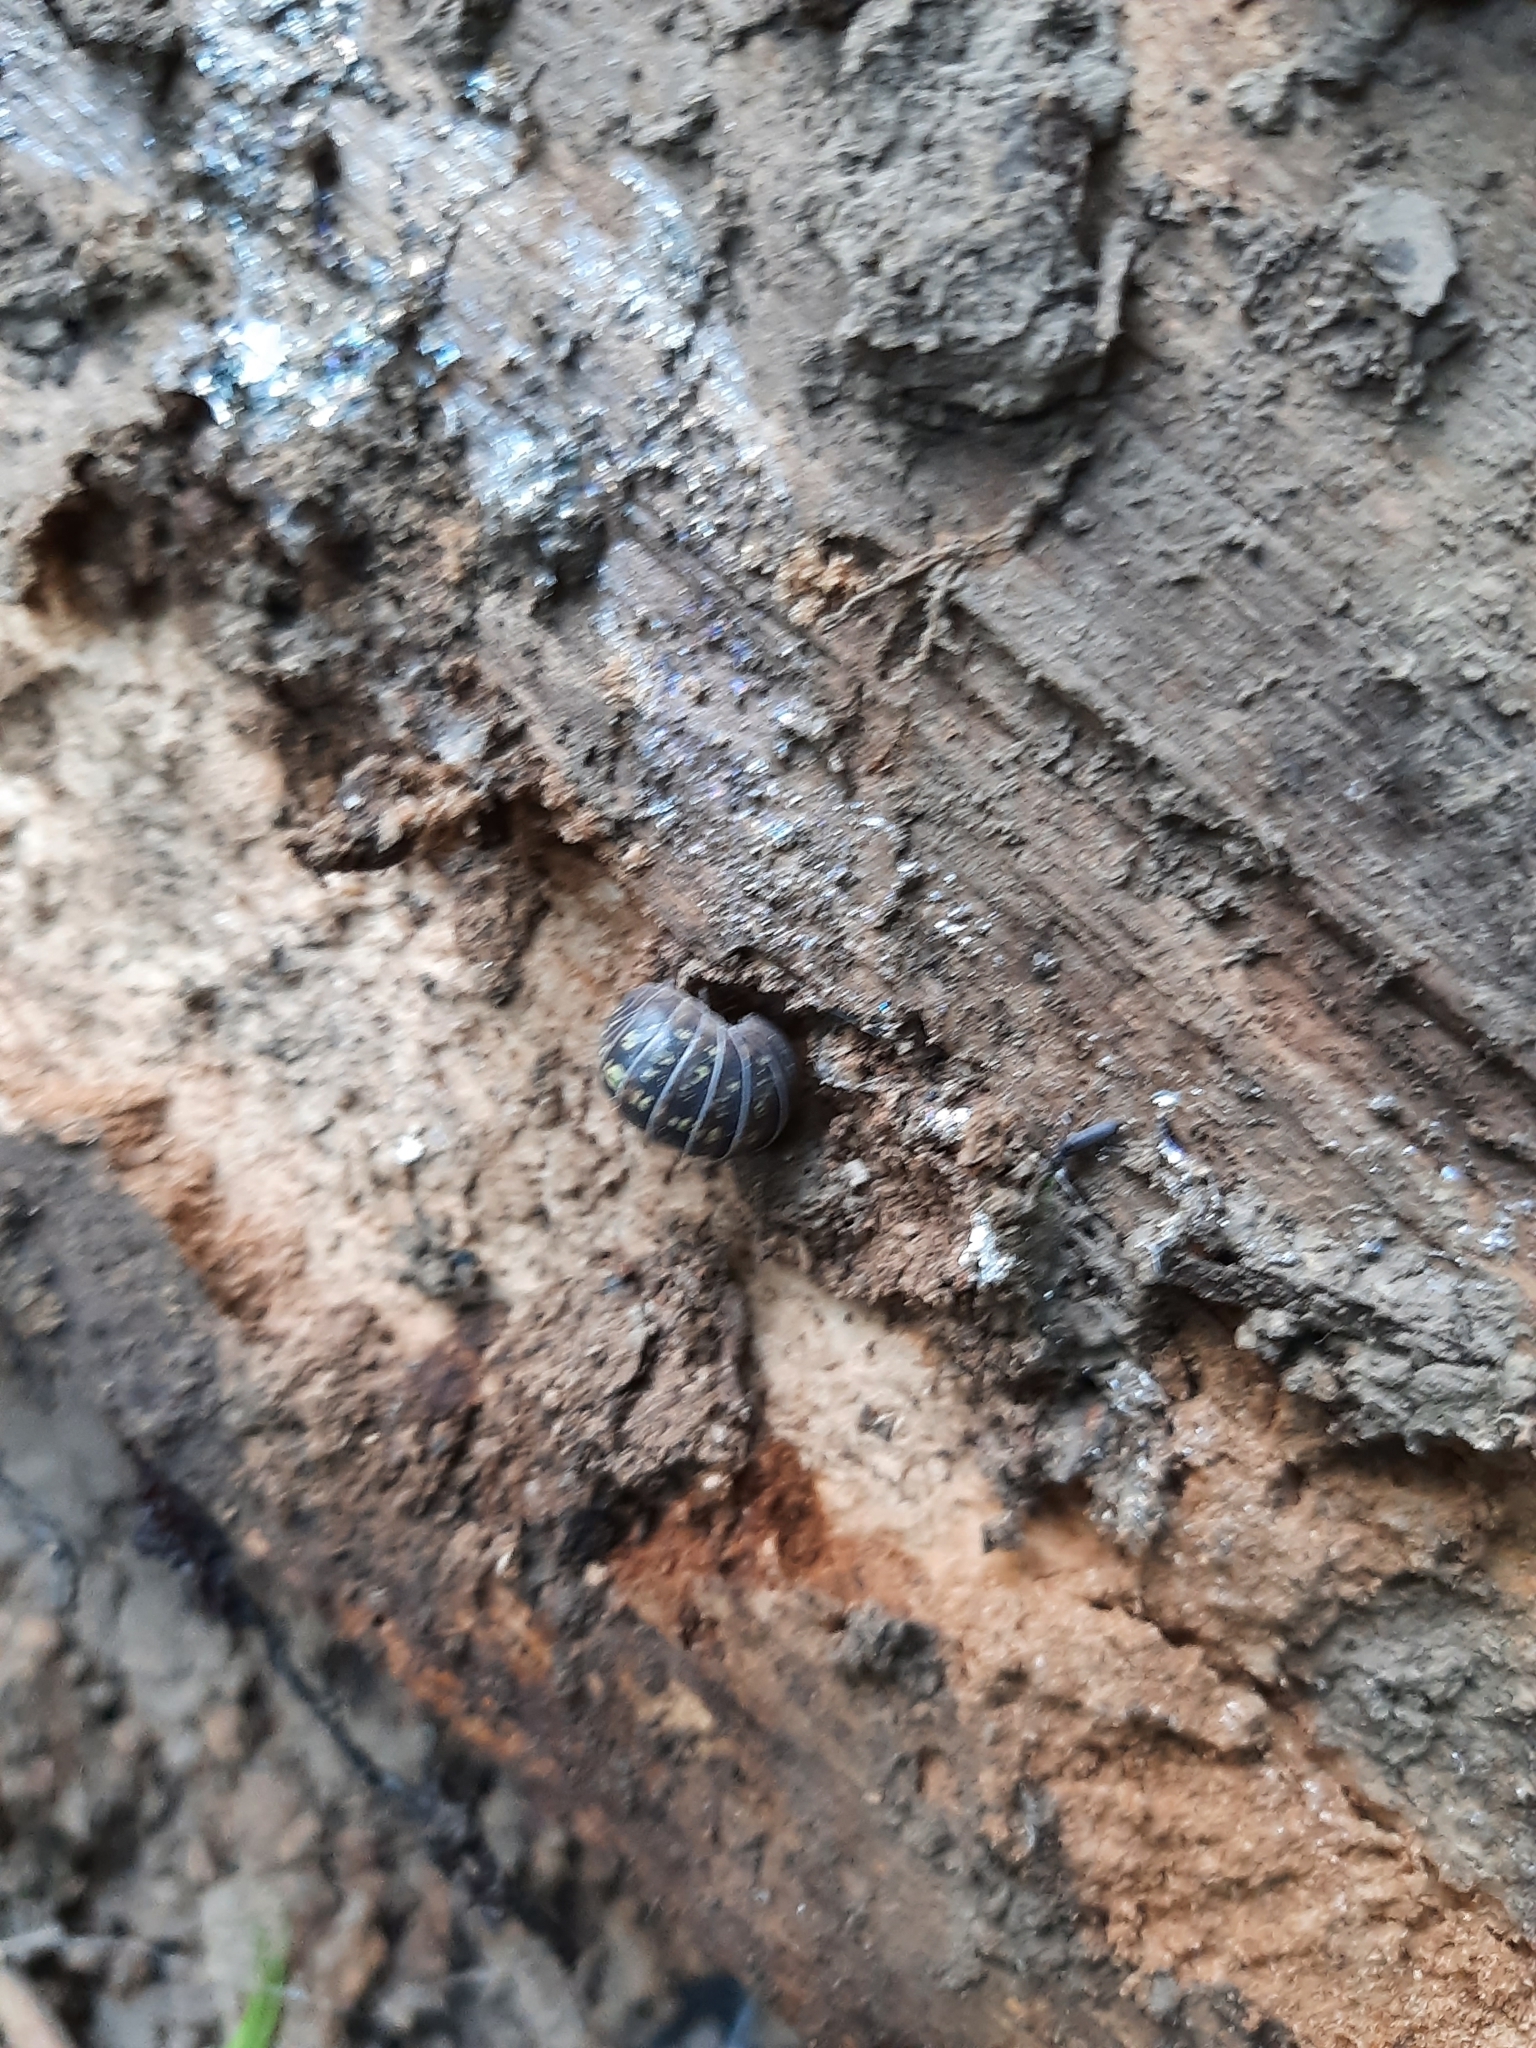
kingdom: Animalia
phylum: Arthropoda
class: Malacostraca
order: Isopoda
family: Armadillidiidae
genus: Armadillidium
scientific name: Armadillidium
